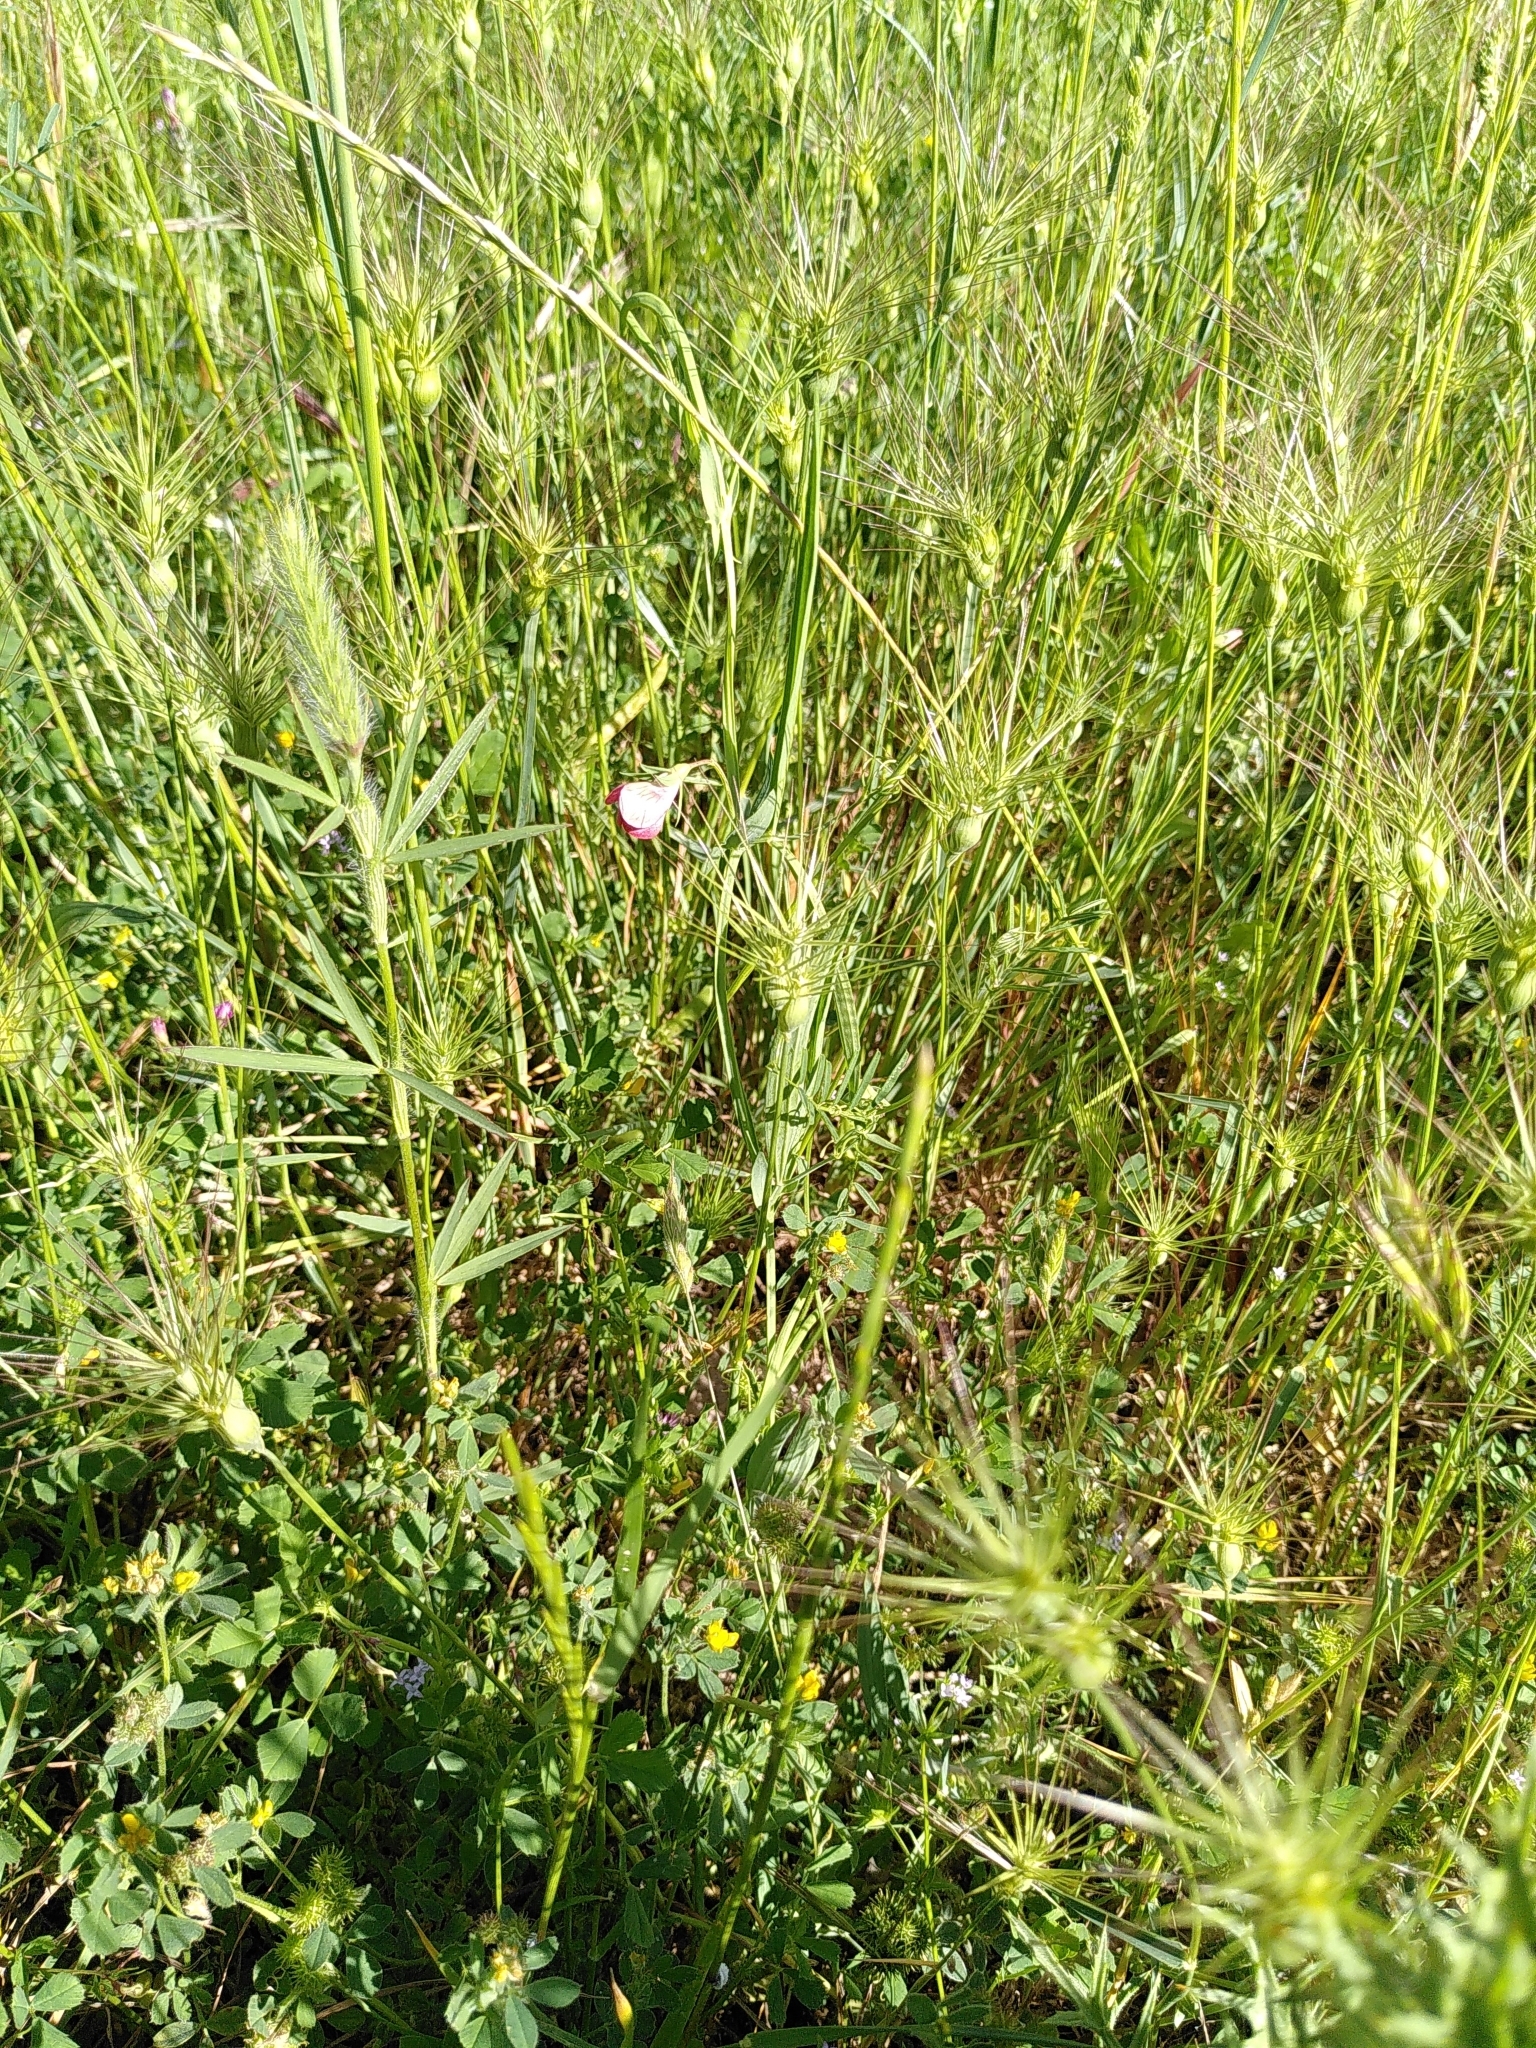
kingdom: Plantae
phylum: Tracheophyta
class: Magnoliopsida
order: Fabales
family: Fabaceae
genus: Lathyrus
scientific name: Lathyrus cicera
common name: Red vetchling
